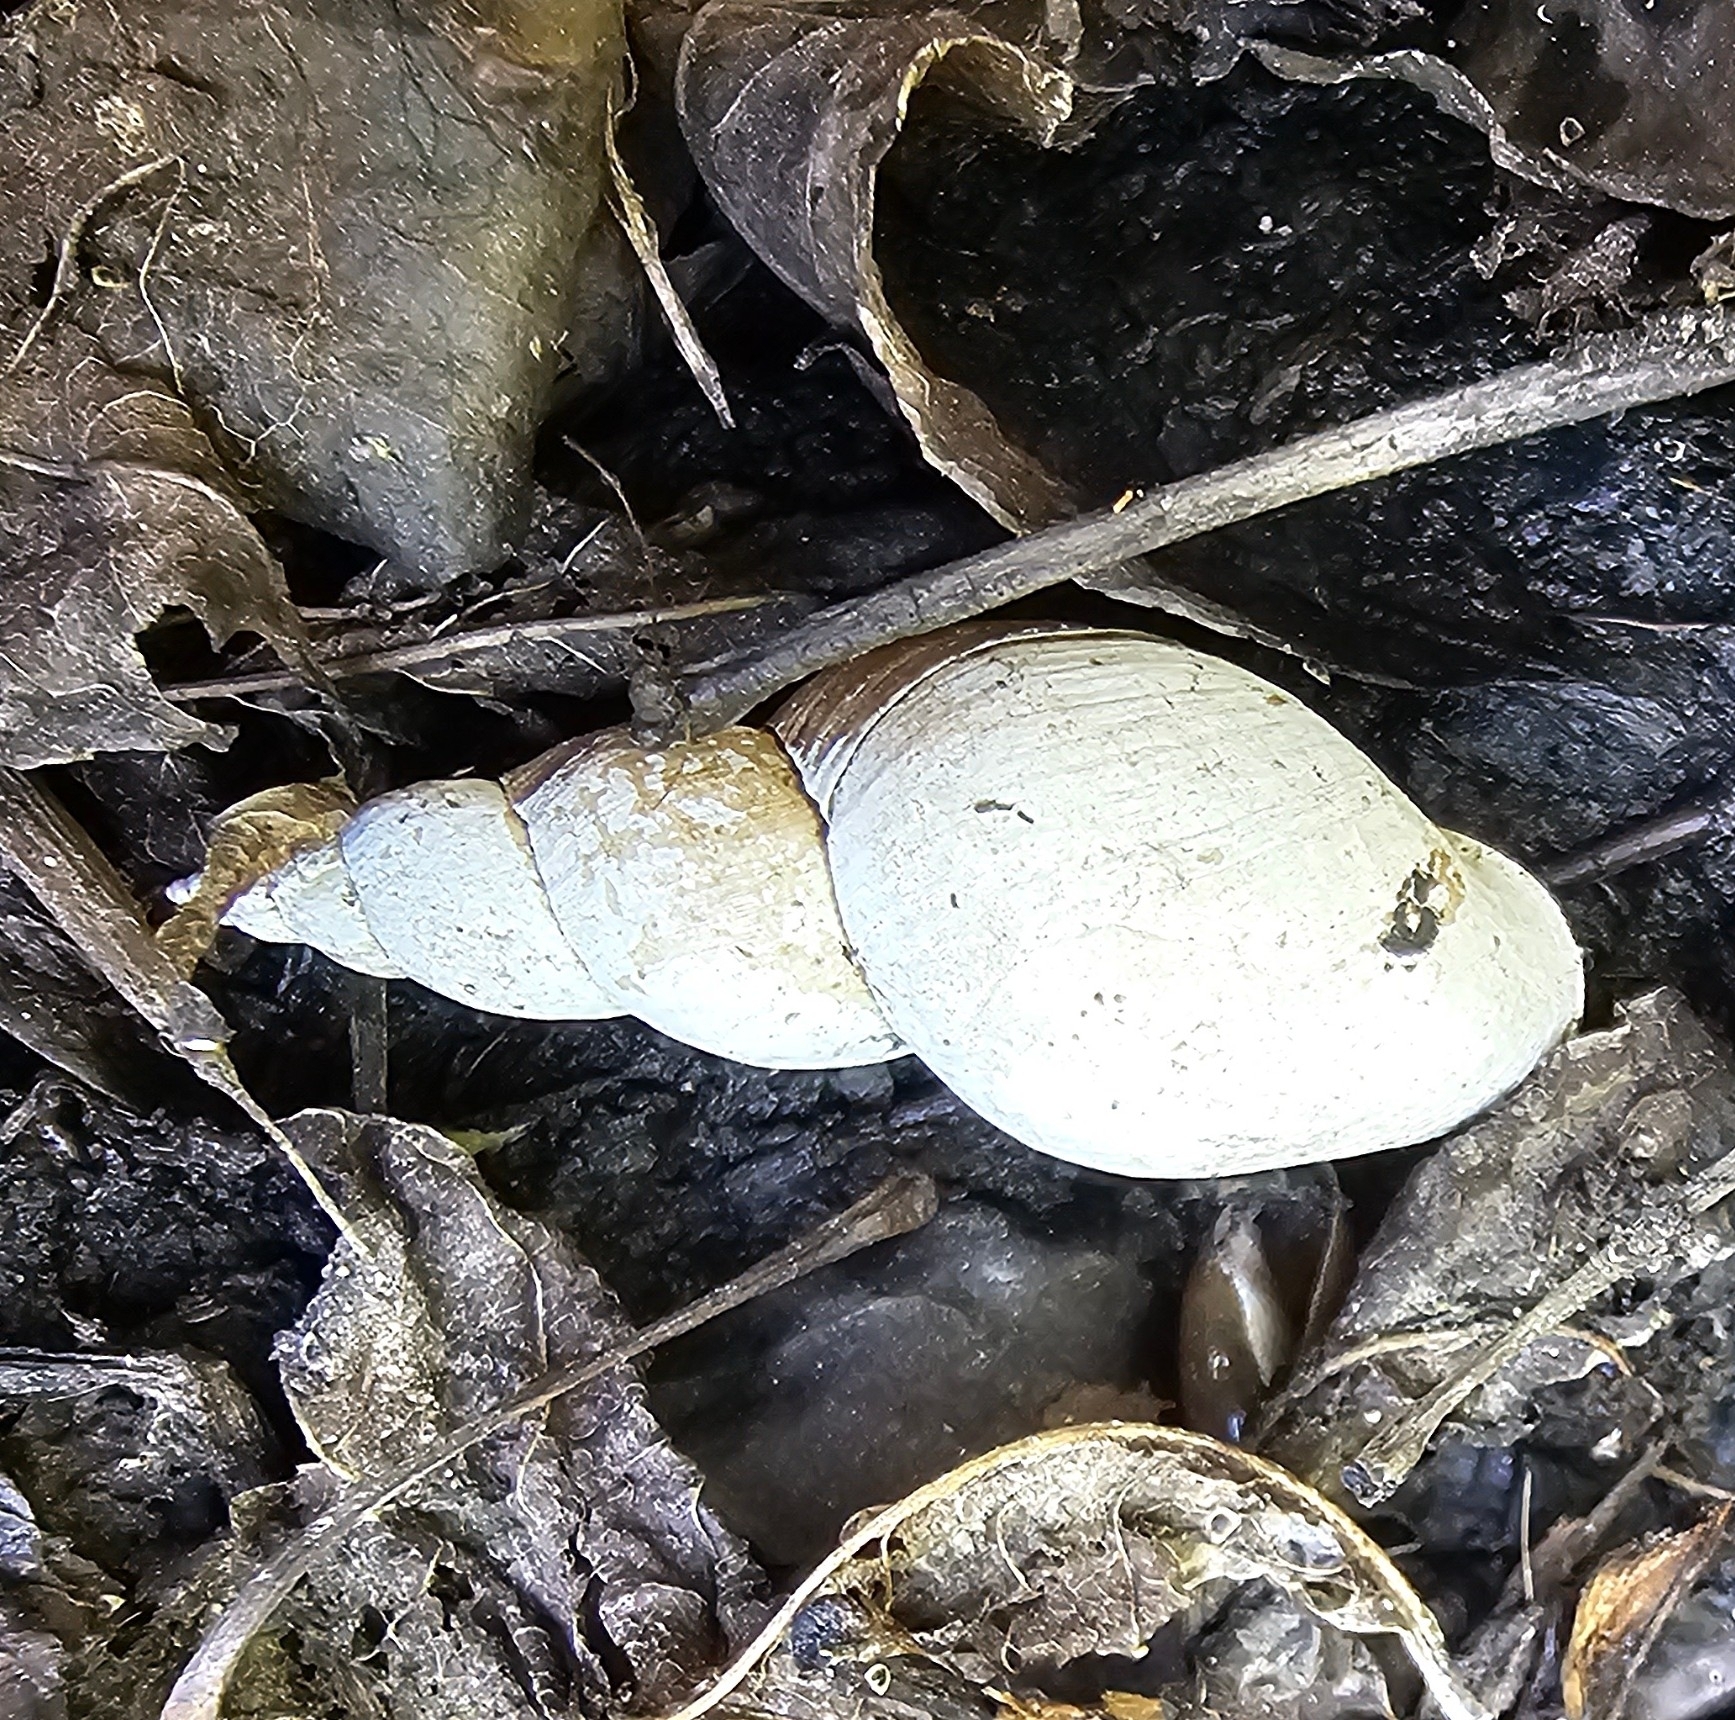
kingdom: Animalia
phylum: Mollusca
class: Gastropoda
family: Lymnaeidae
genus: Lymnaea
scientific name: Lymnaea stagnalis
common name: Great pond snail
